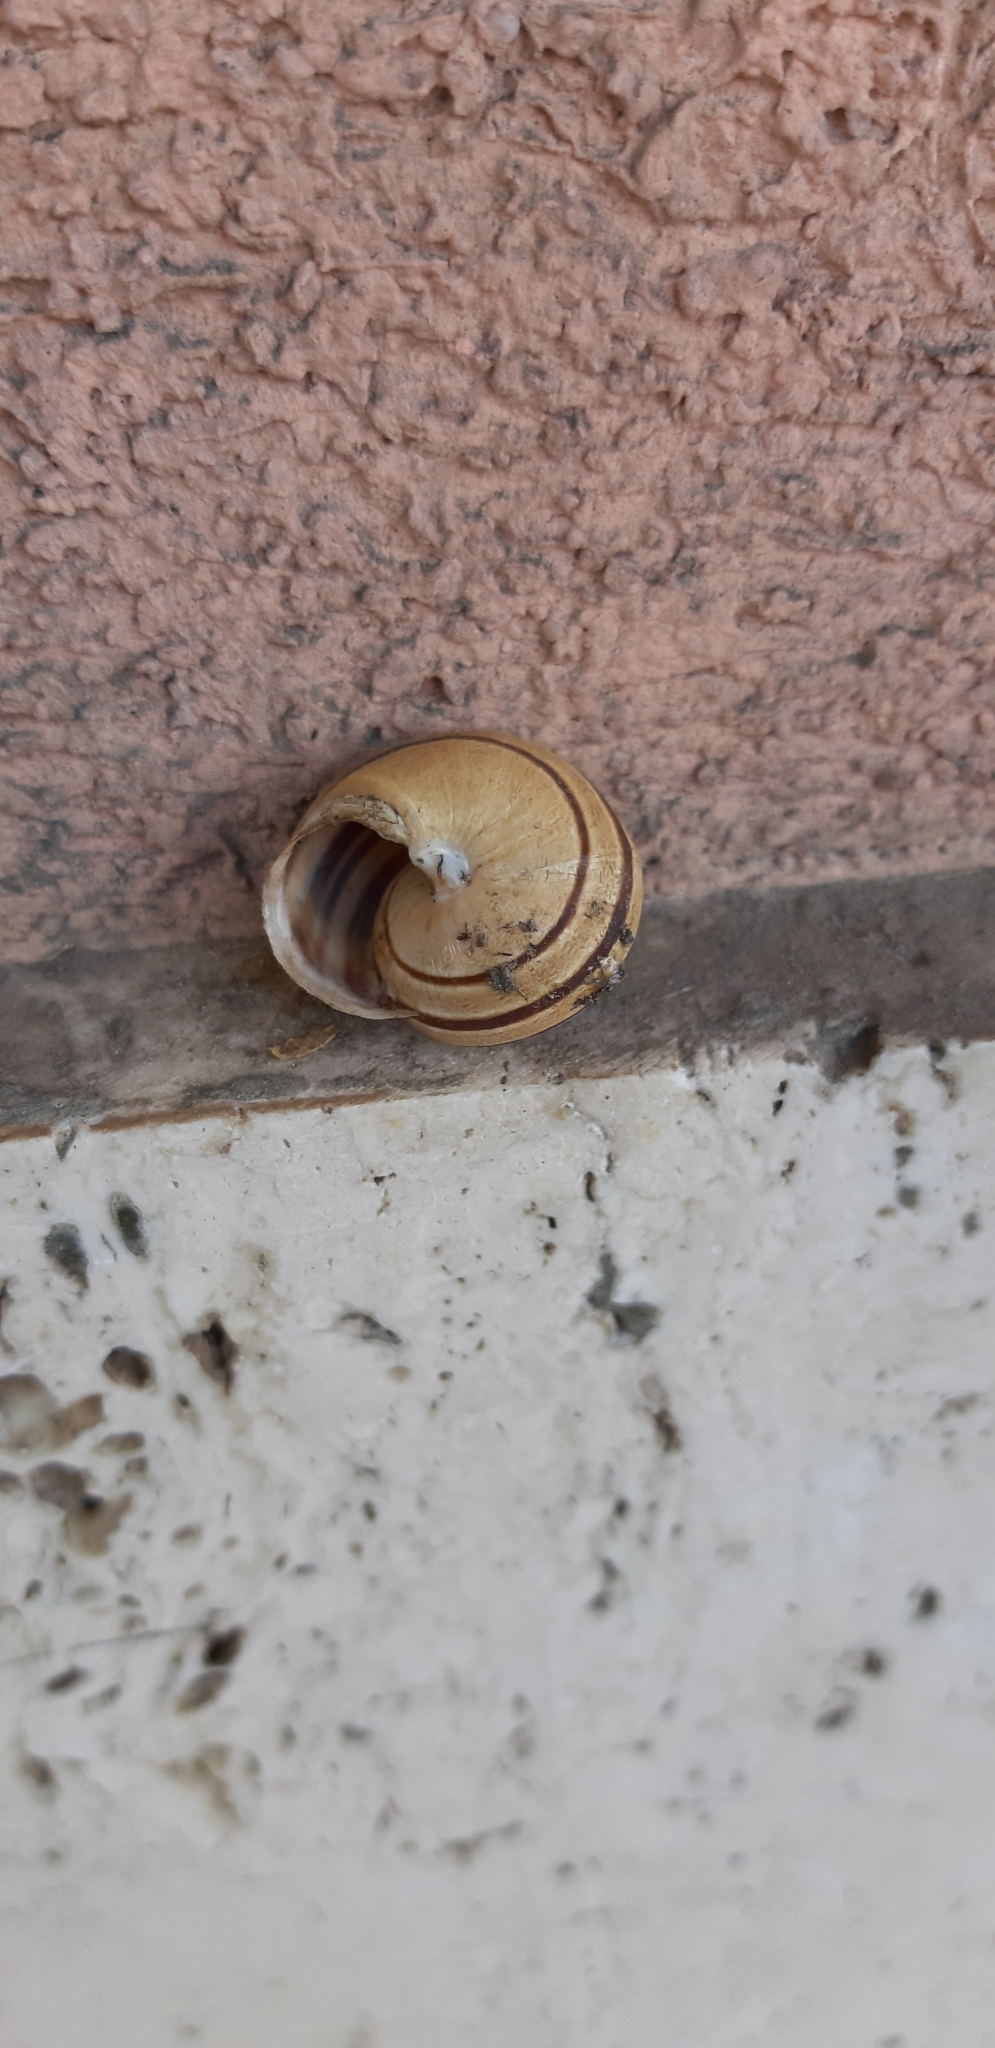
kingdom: Animalia
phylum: Mollusca
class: Gastropoda
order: Stylommatophora
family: Helicidae
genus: Eobania
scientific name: Eobania vermiculata
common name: Chocolateband snail
